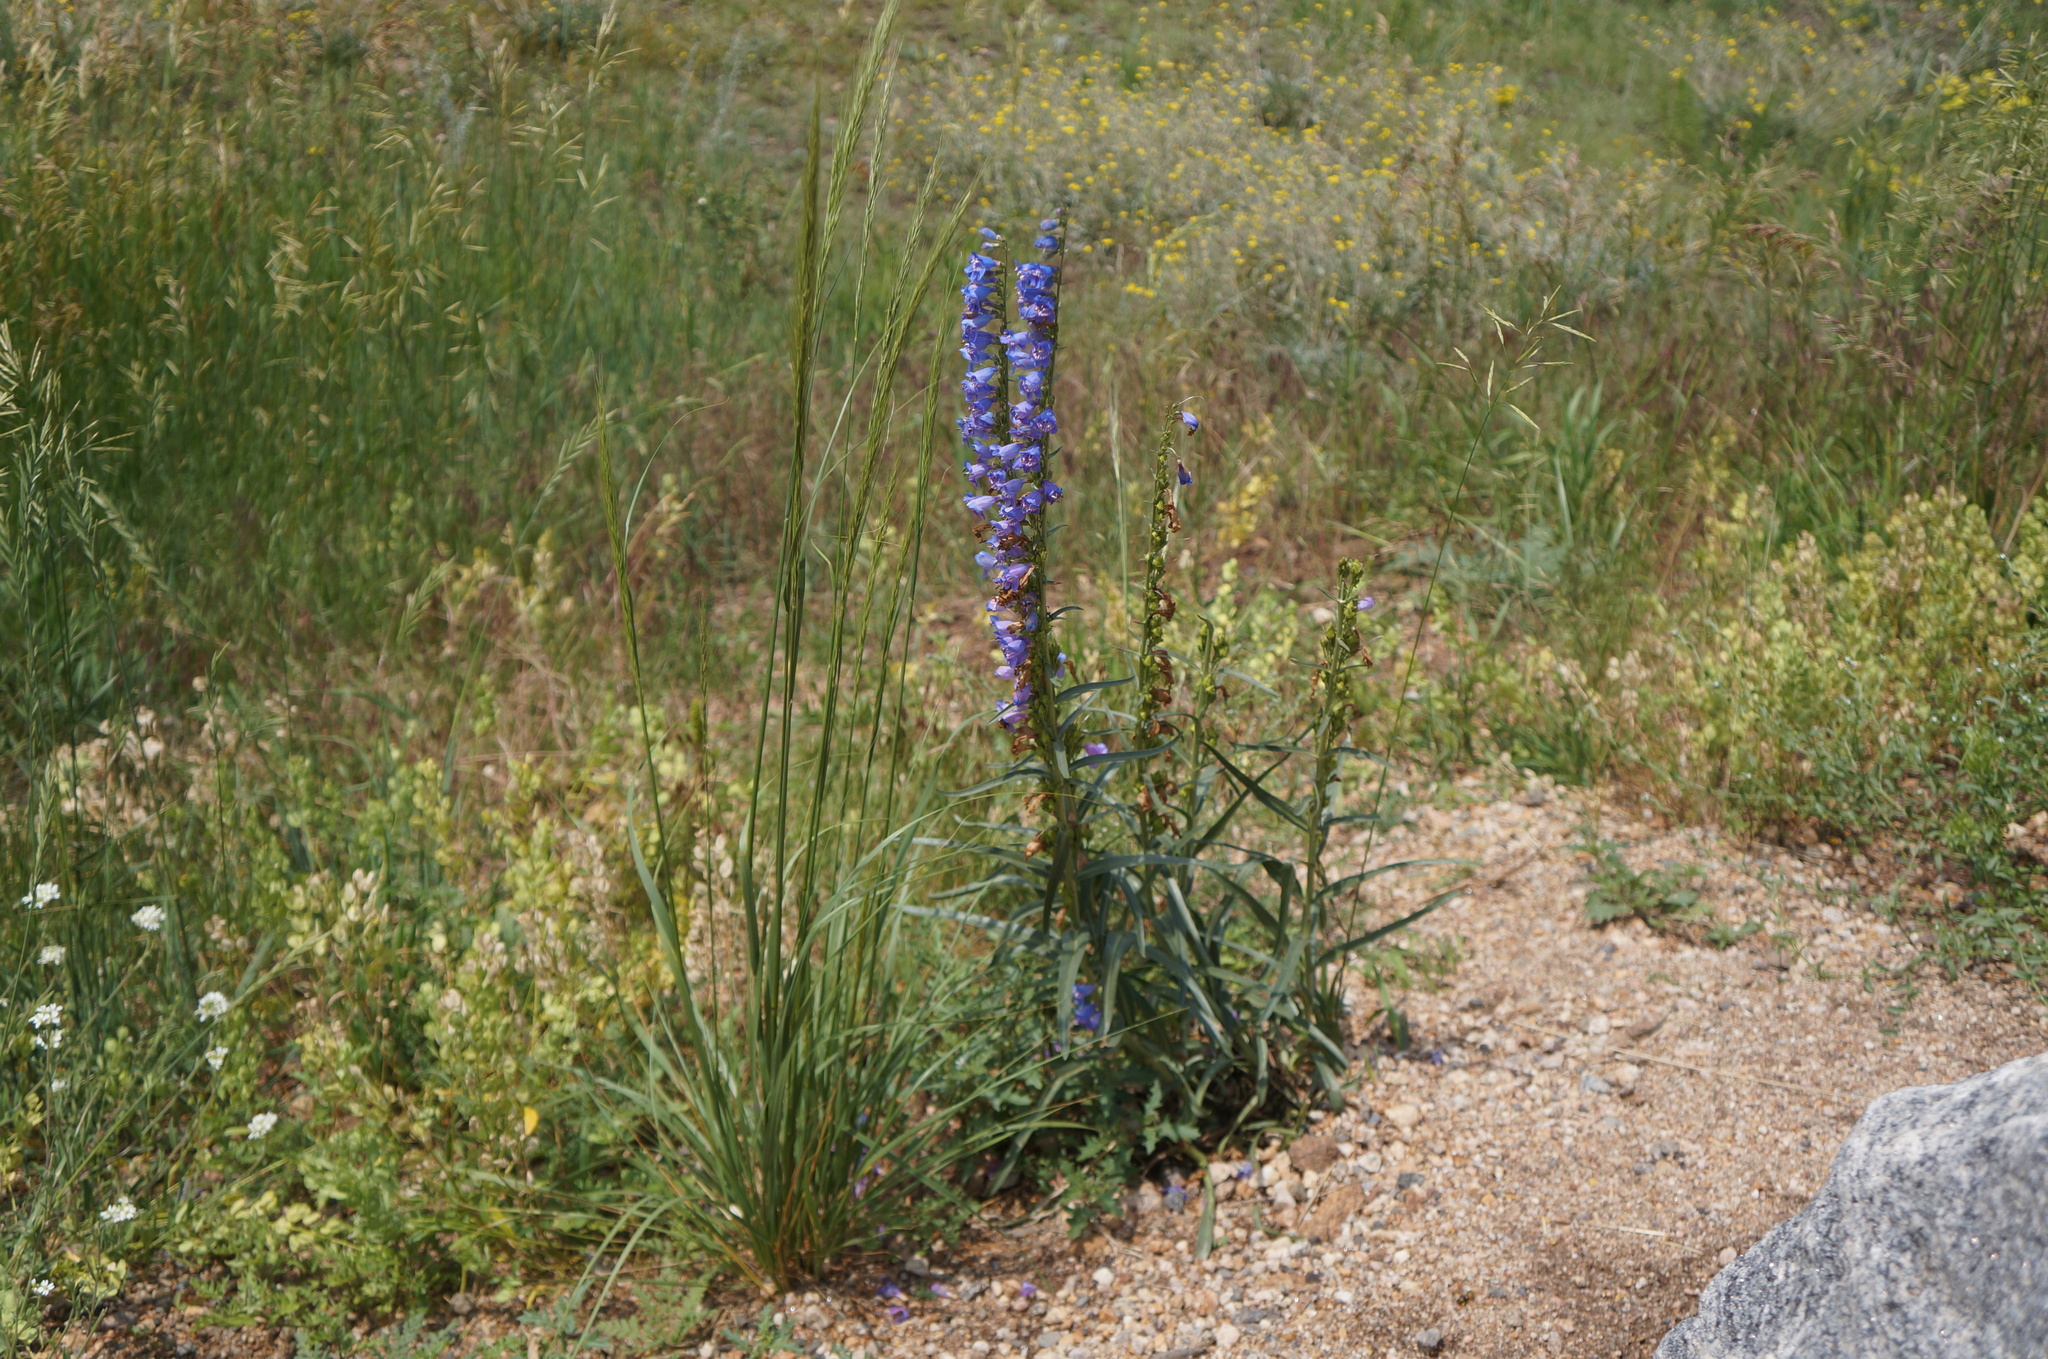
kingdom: Plantae
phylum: Tracheophyta
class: Magnoliopsida
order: Lamiales
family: Plantaginaceae
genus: Penstemon
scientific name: Penstemon virgatus
